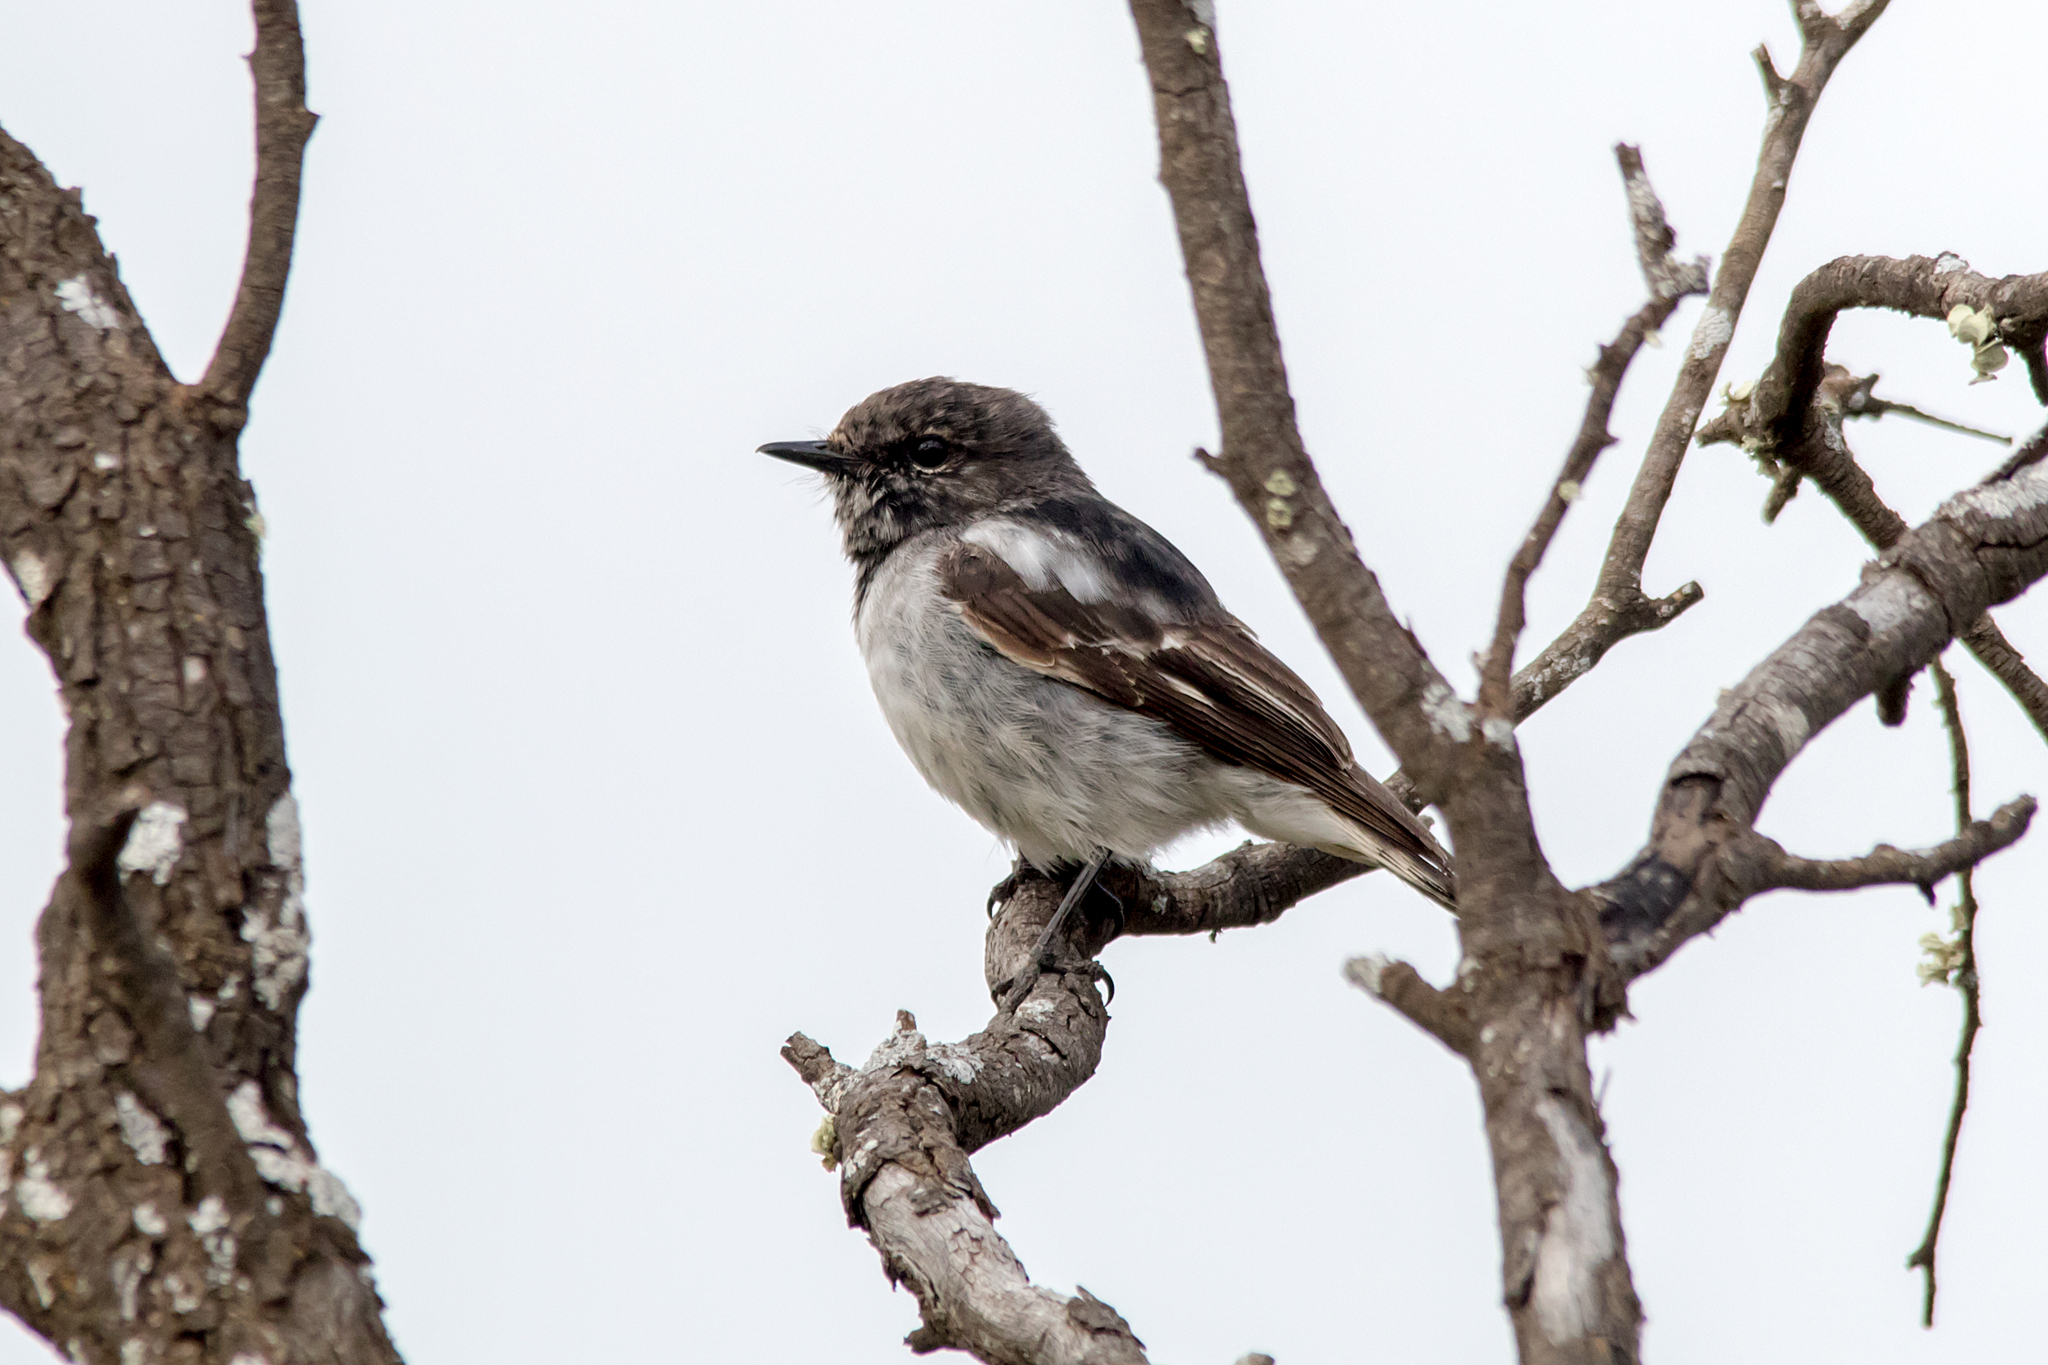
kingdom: Animalia
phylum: Chordata
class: Aves
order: Passeriformes
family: Petroicidae
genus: Melanodryas
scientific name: Melanodryas cucullata
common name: Hooded robin
